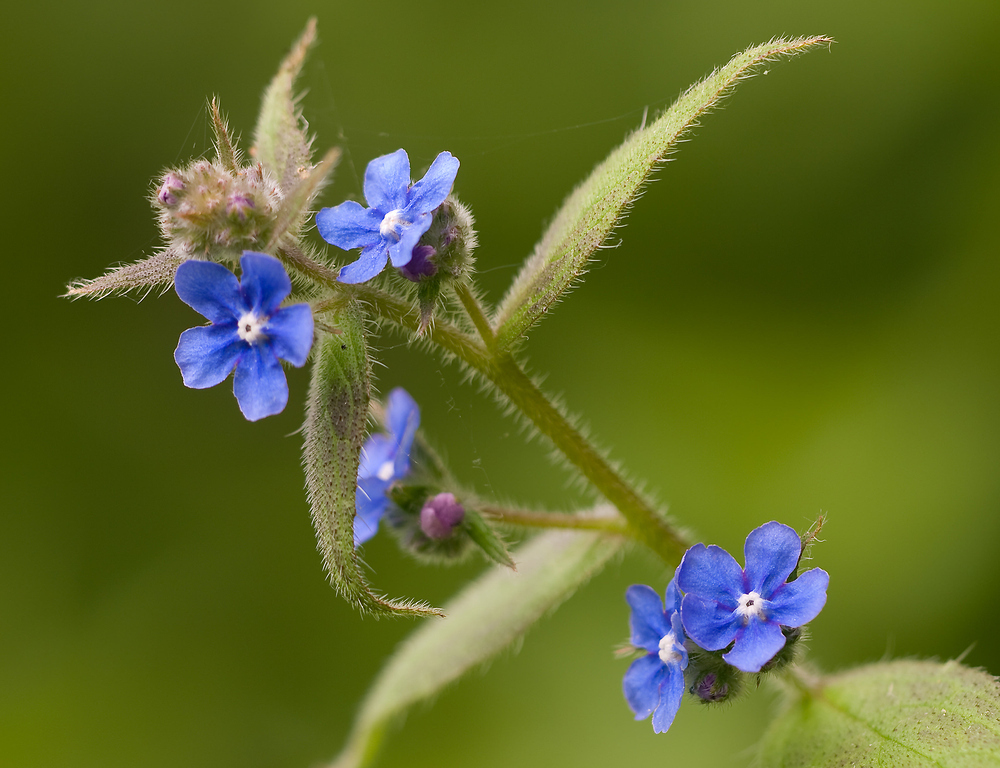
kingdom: Plantae
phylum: Tracheophyta
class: Magnoliopsida
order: Boraginales
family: Boraginaceae
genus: Pentaglottis
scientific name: Pentaglottis sempervirens
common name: Green alkanet
